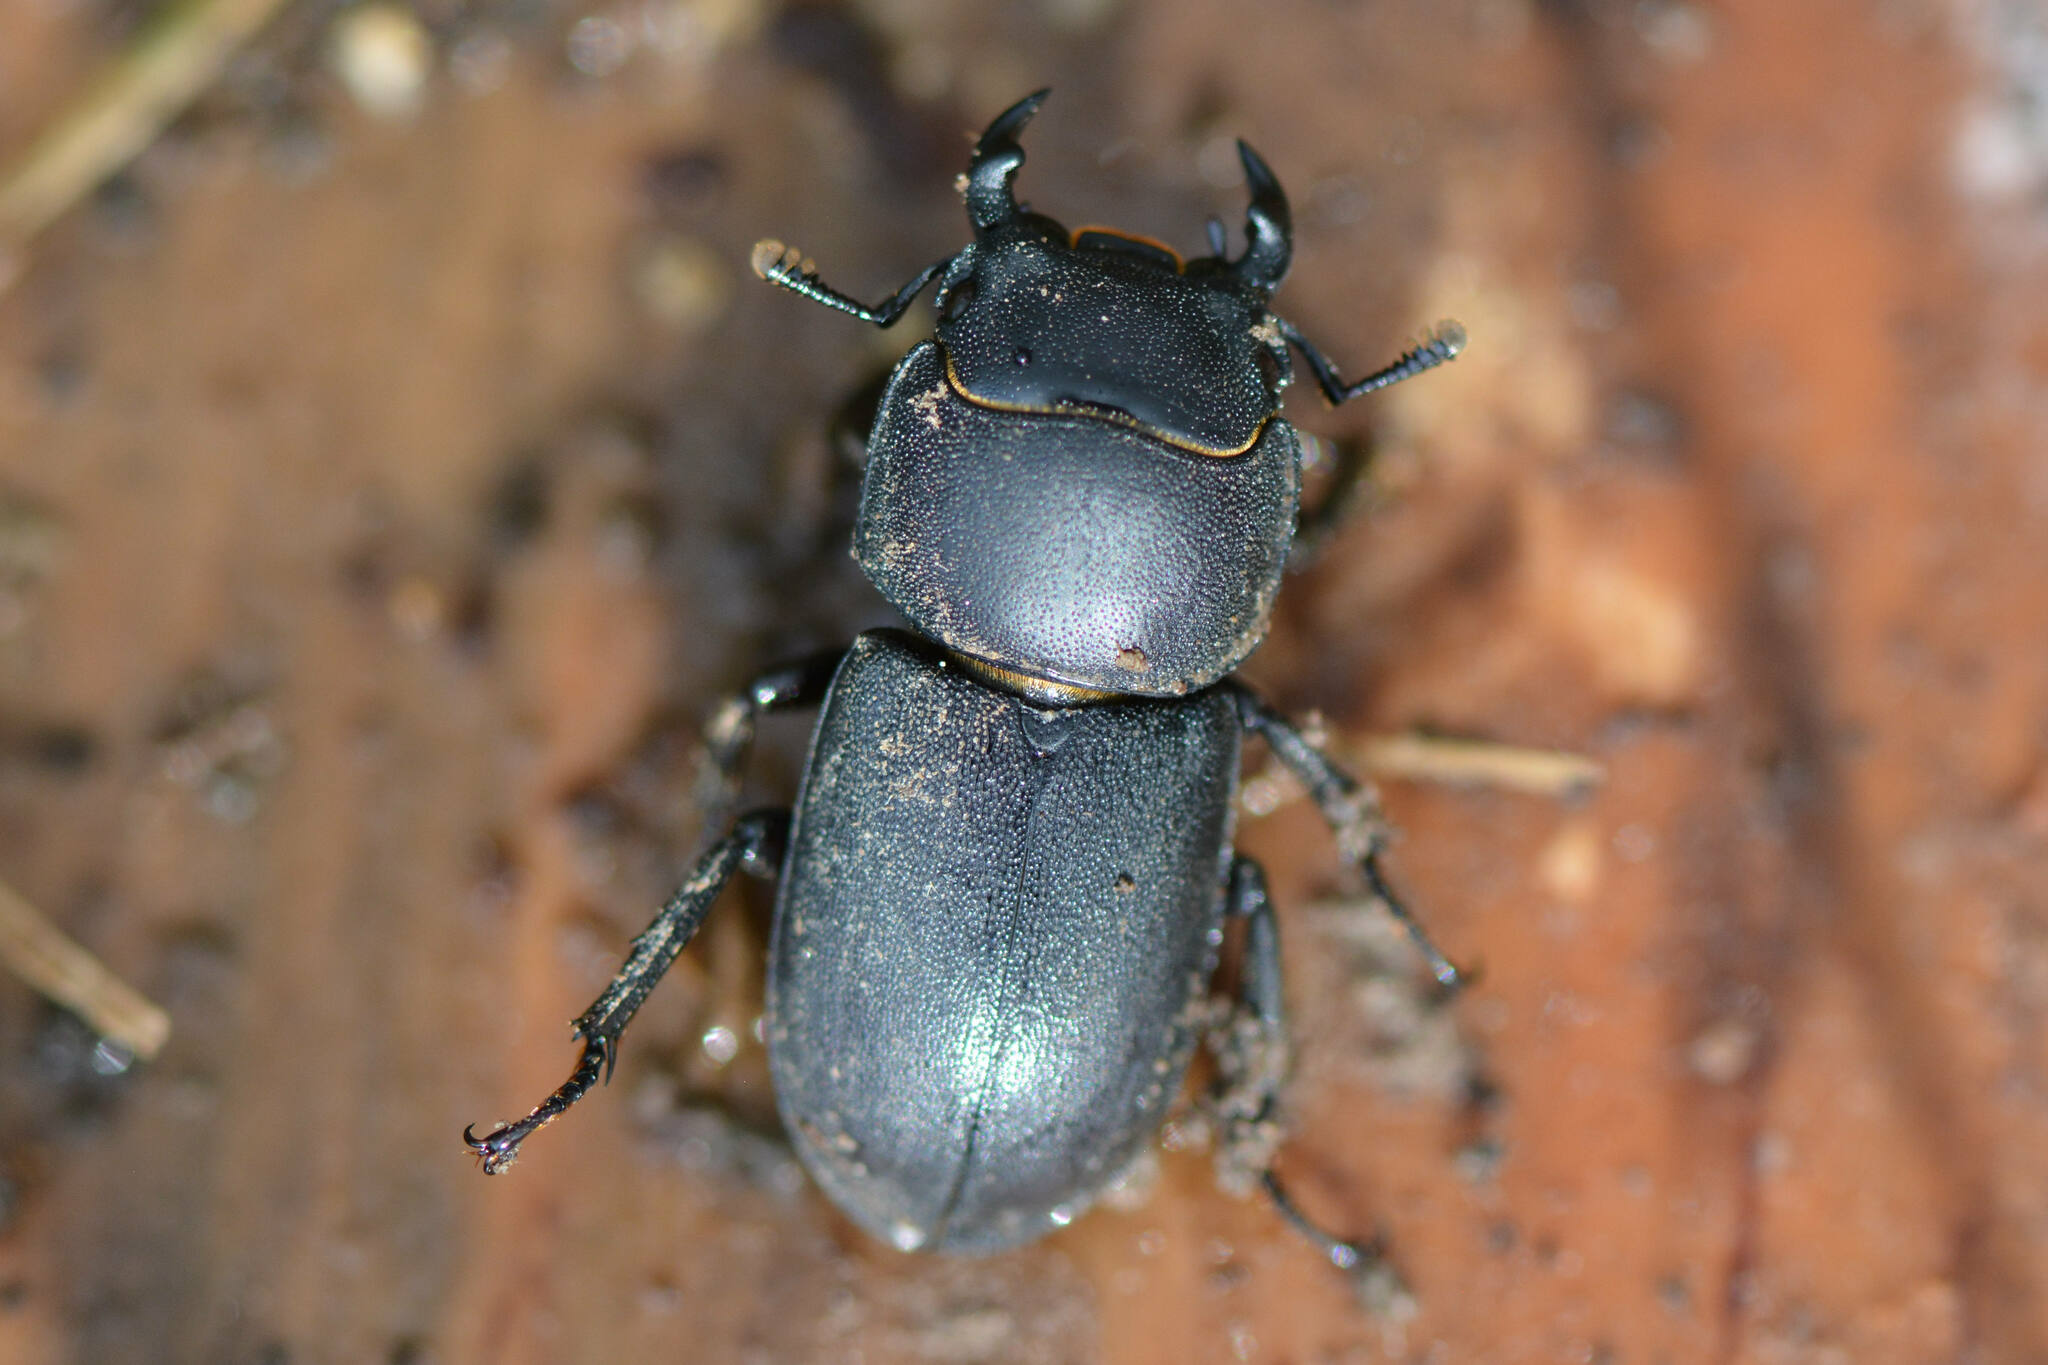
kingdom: Animalia
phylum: Arthropoda
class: Insecta
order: Coleoptera
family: Lucanidae
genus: Dorcus
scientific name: Dorcus parallelipipedus
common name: Lesser stag beetle
